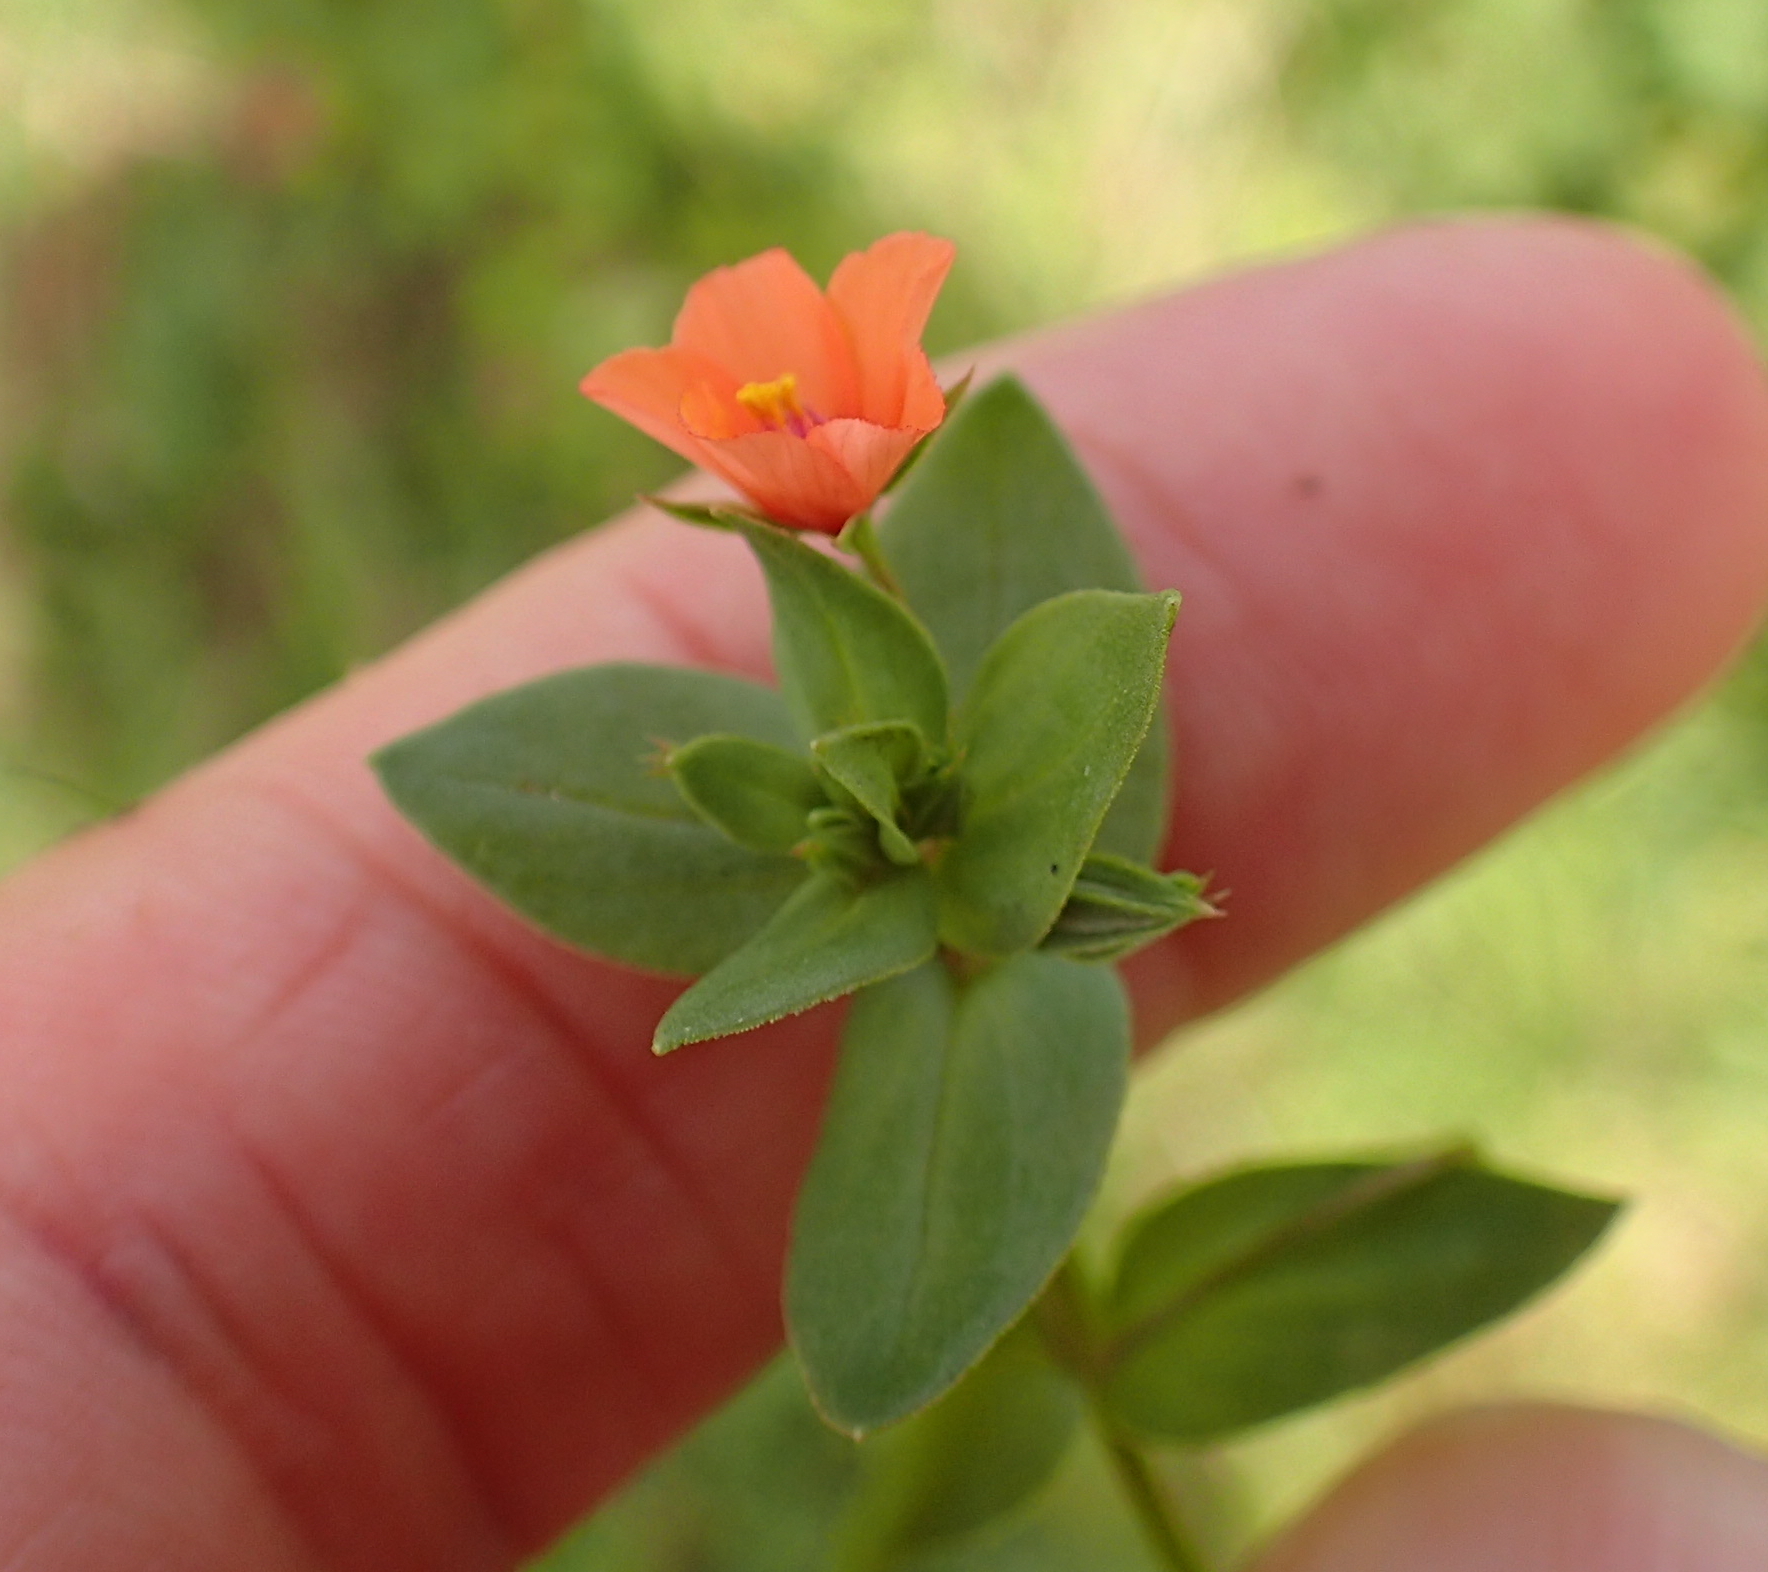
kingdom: Plantae
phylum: Tracheophyta
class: Magnoliopsida
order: Ericales
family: Primulaceae
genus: Lysimachia
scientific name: Lysimachia arvensis
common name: Scarlet pimpernel
